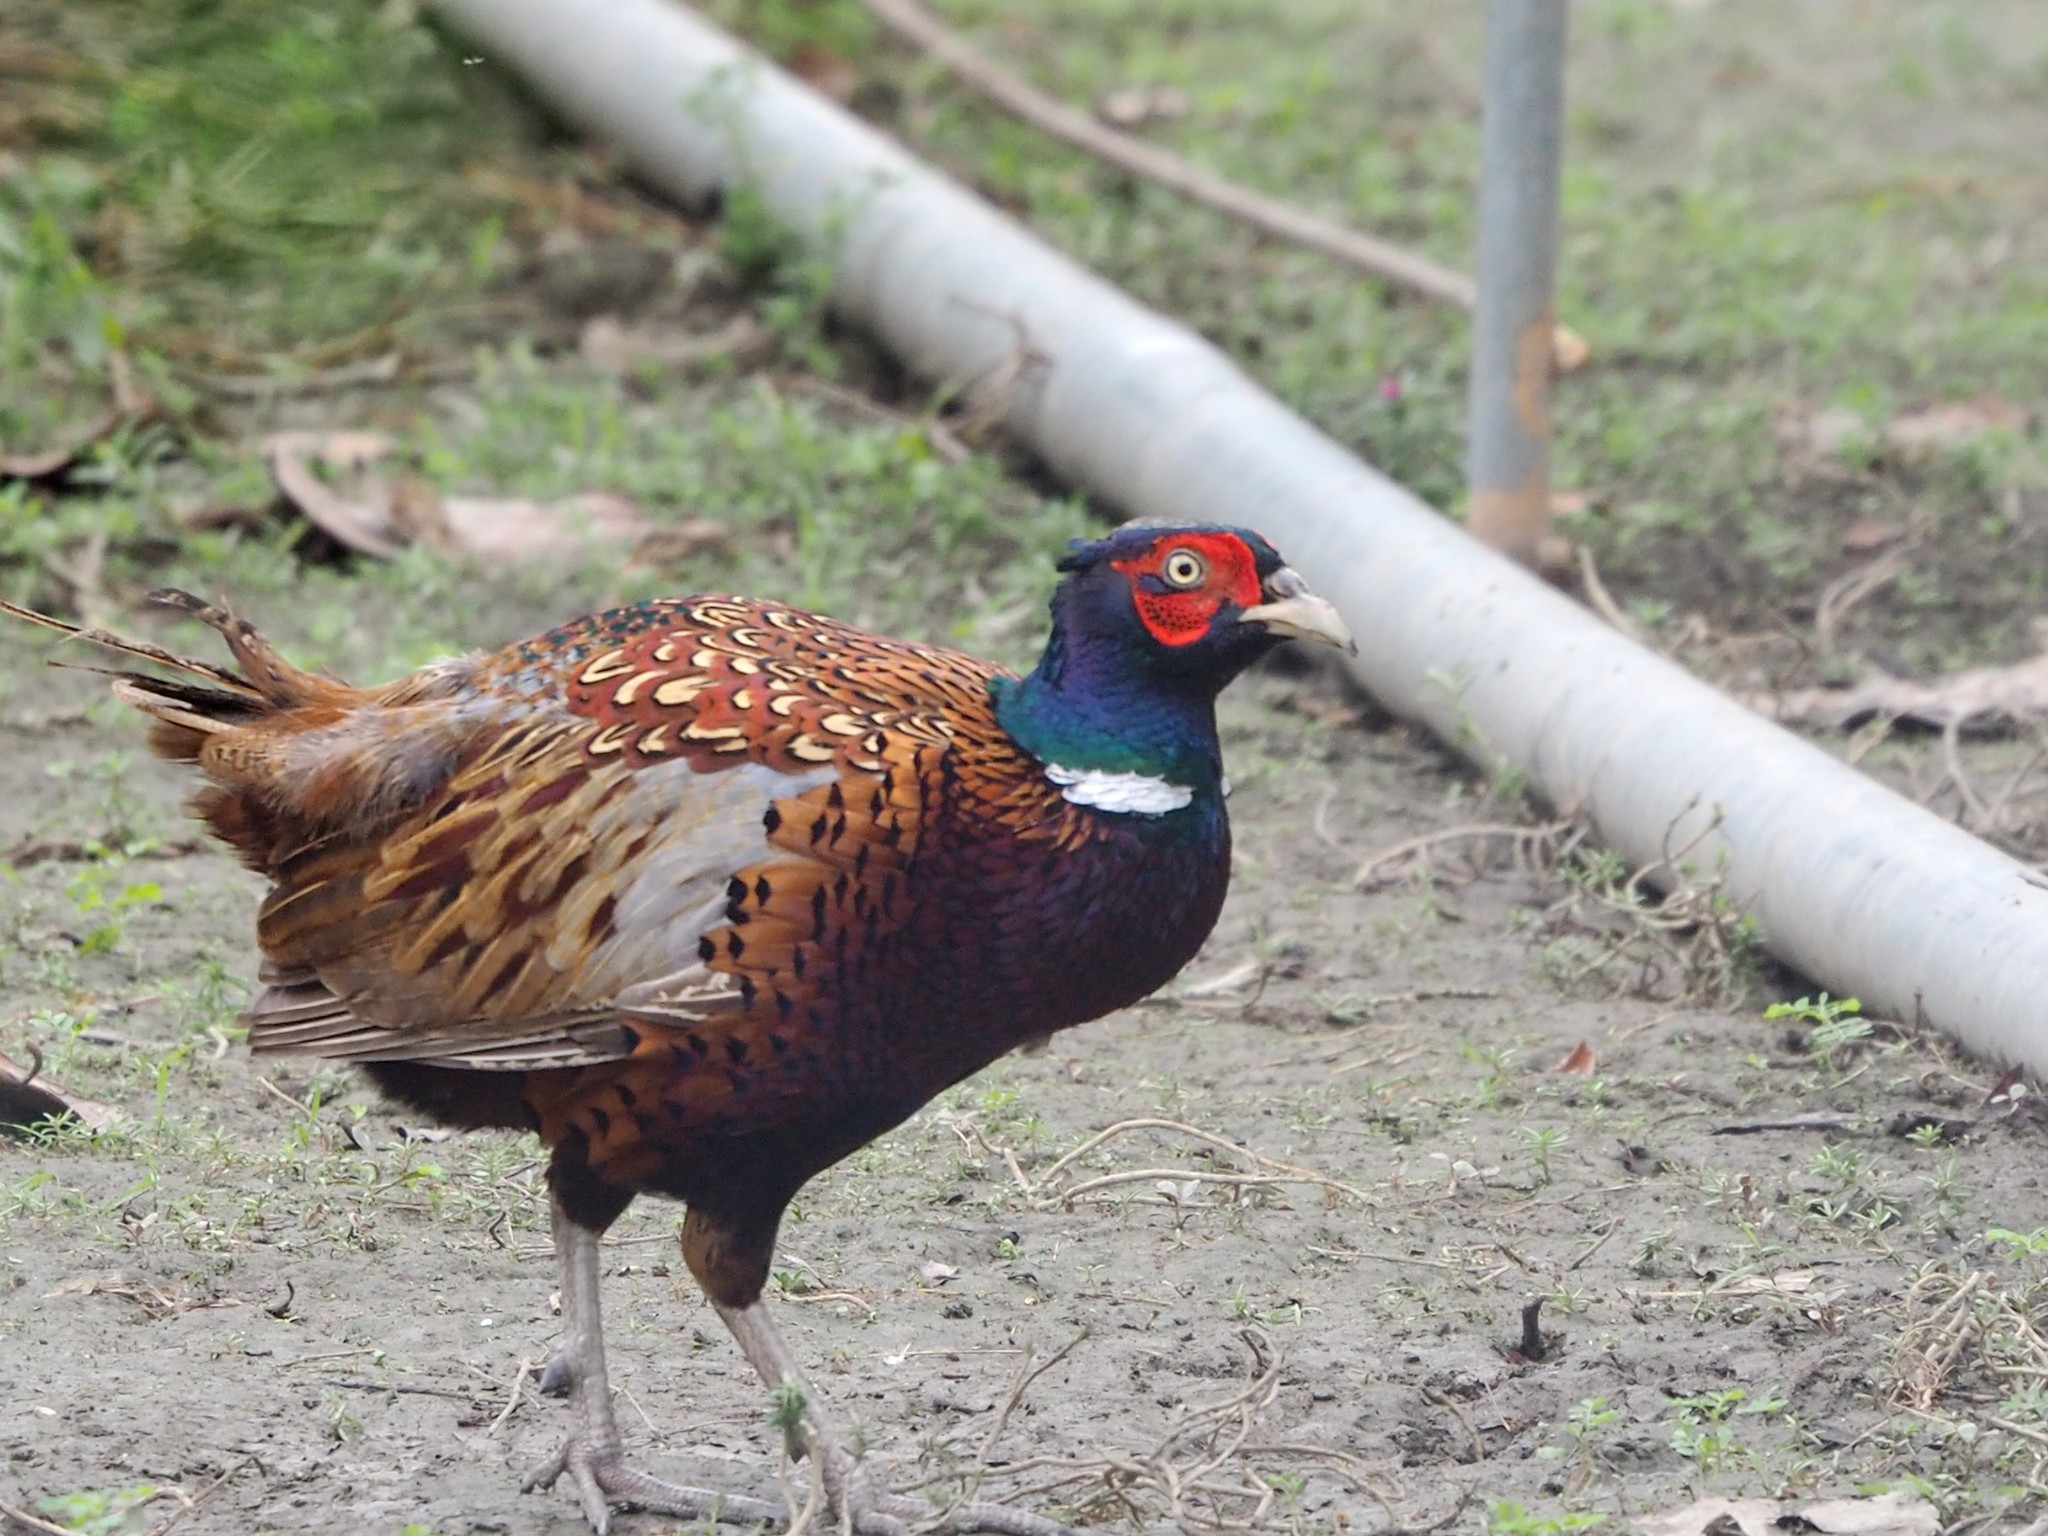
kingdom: Animalia
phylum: Chordata
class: Aves
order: Galliformes
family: Phasianidae
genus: Phasianus
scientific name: Phasianus colchicus
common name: Common pheasant
